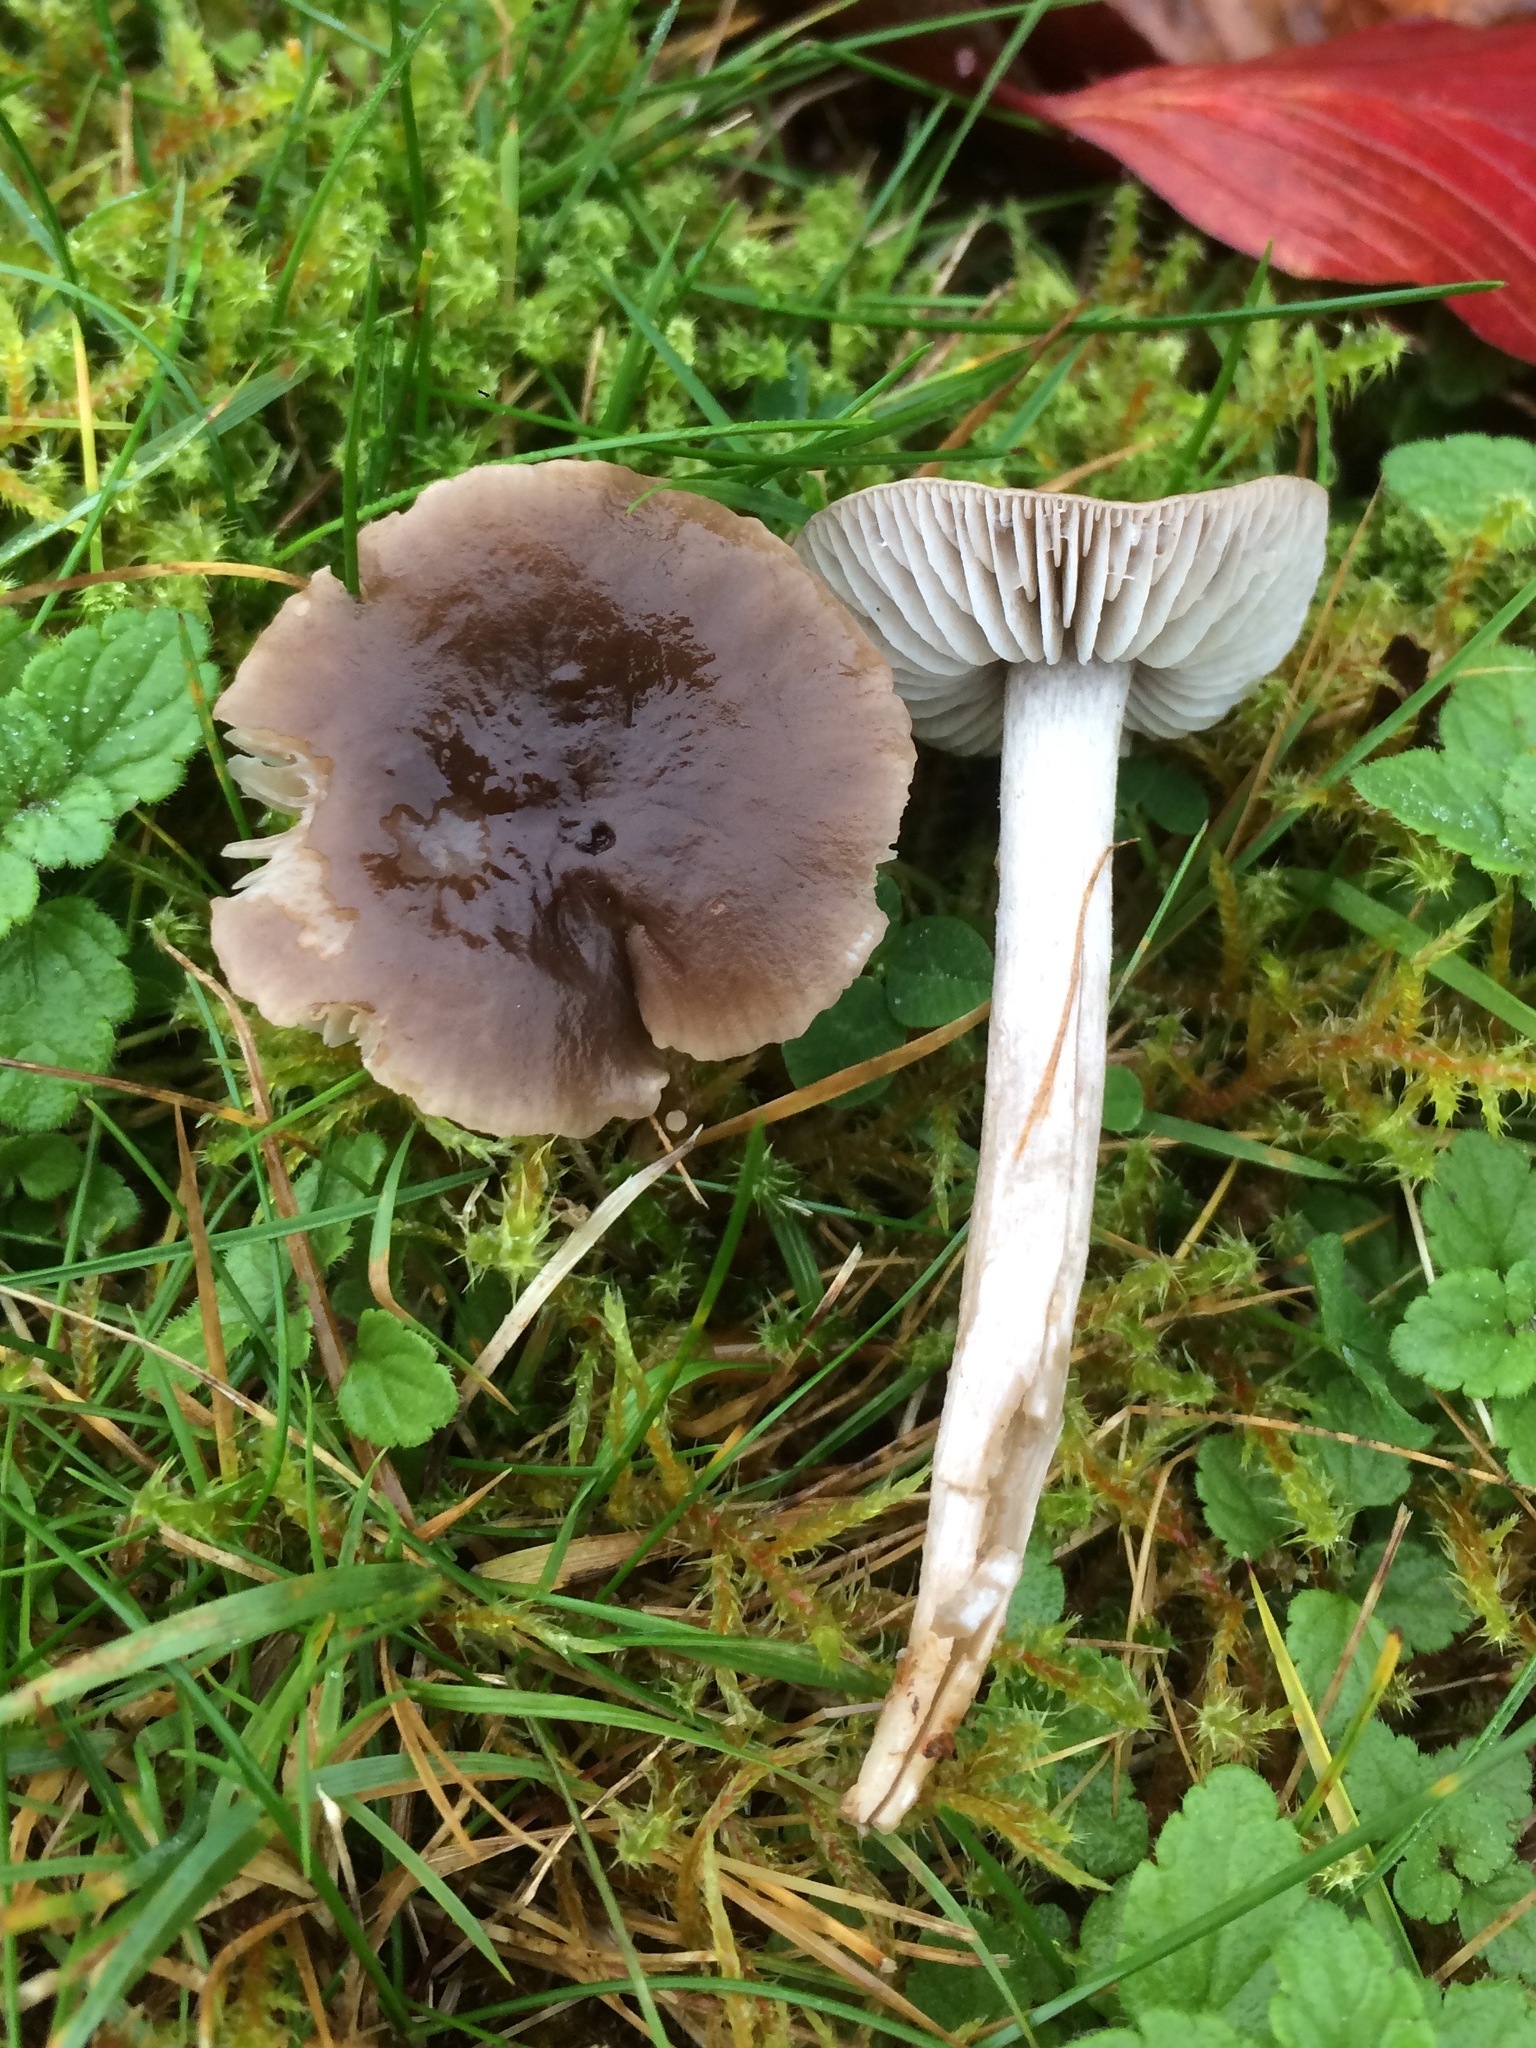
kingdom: Fungi
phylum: Basidiomycota
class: Agaricomycetes
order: Agaricales
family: Tricholomataceae
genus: Dermoloma
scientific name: Dermoloma cuneifolium
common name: Crazed cap
